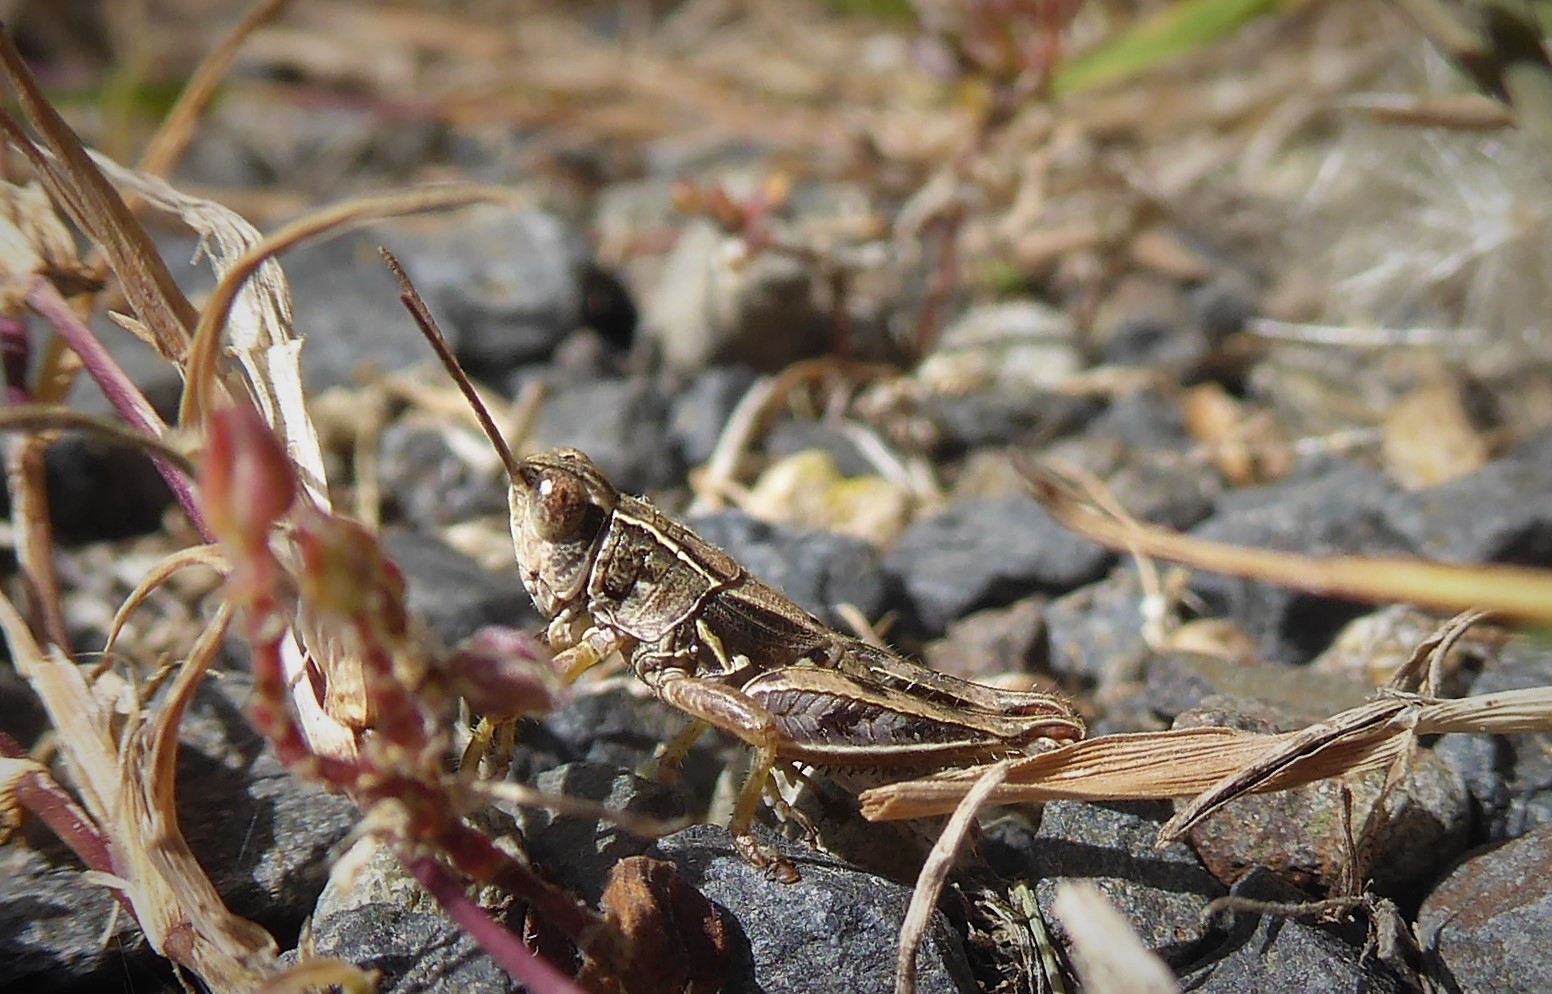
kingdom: Animalia
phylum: Arthropoda
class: Insecta
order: Orthoptera
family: Acrididae
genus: Phaulacridium
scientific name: Phaulacridium marginale
